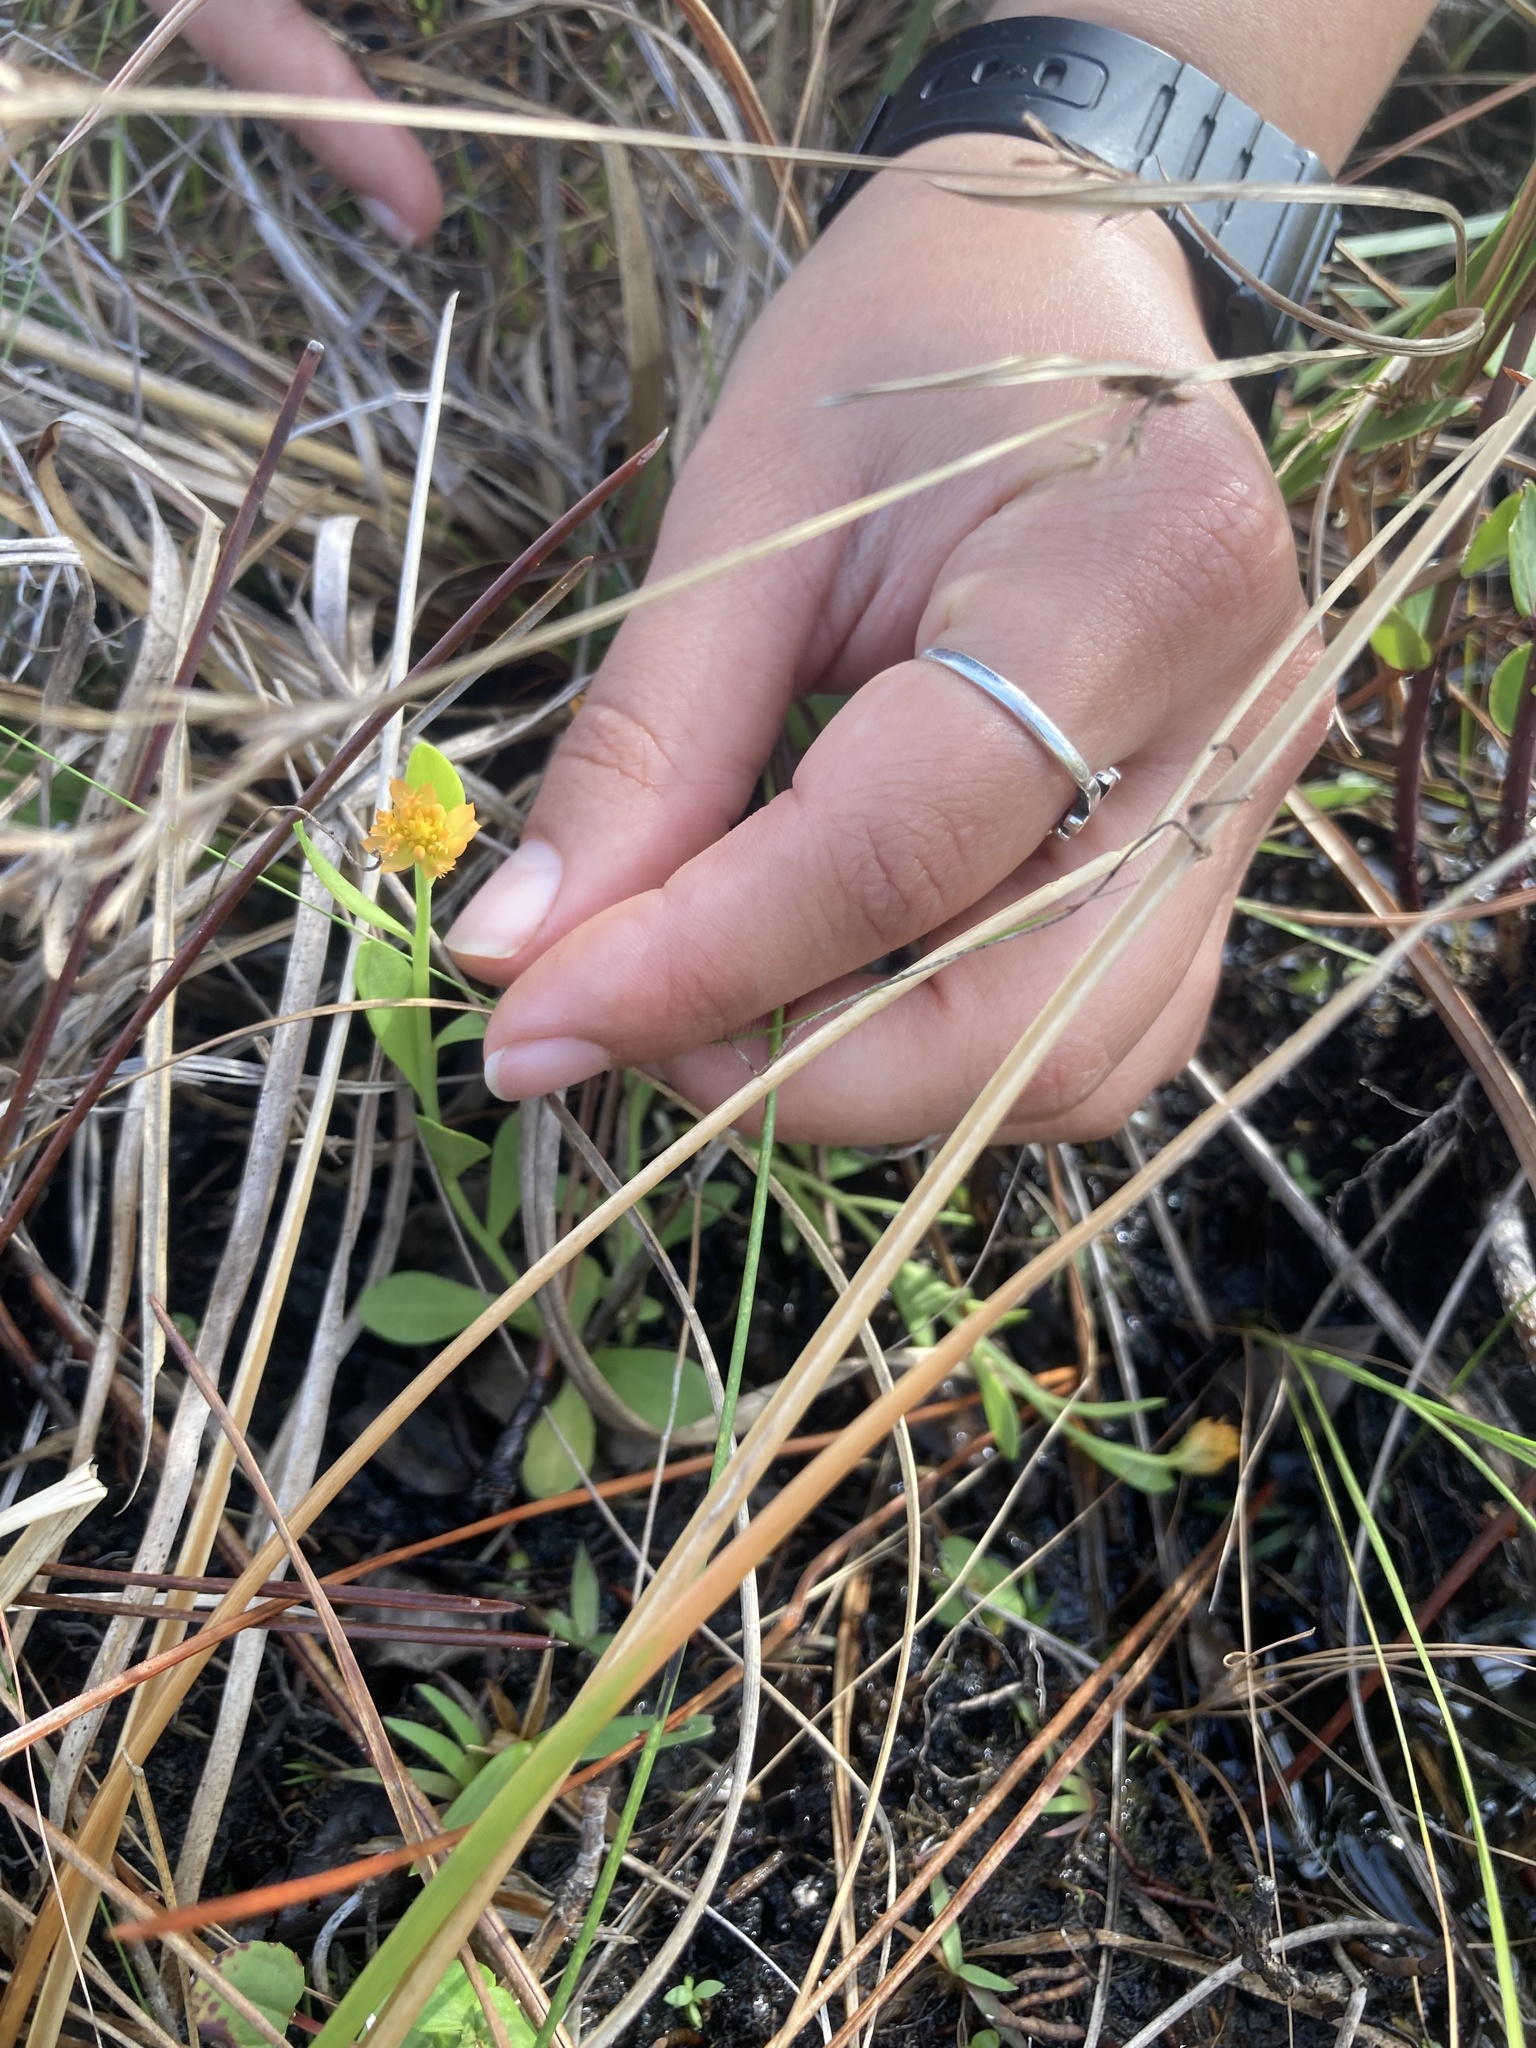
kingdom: Plantae
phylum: Tracheophyta
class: Magnoliopsida
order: Fabales
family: Polygalaceae
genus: Polygala
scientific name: Polygala lutea
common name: Orange milkwort
